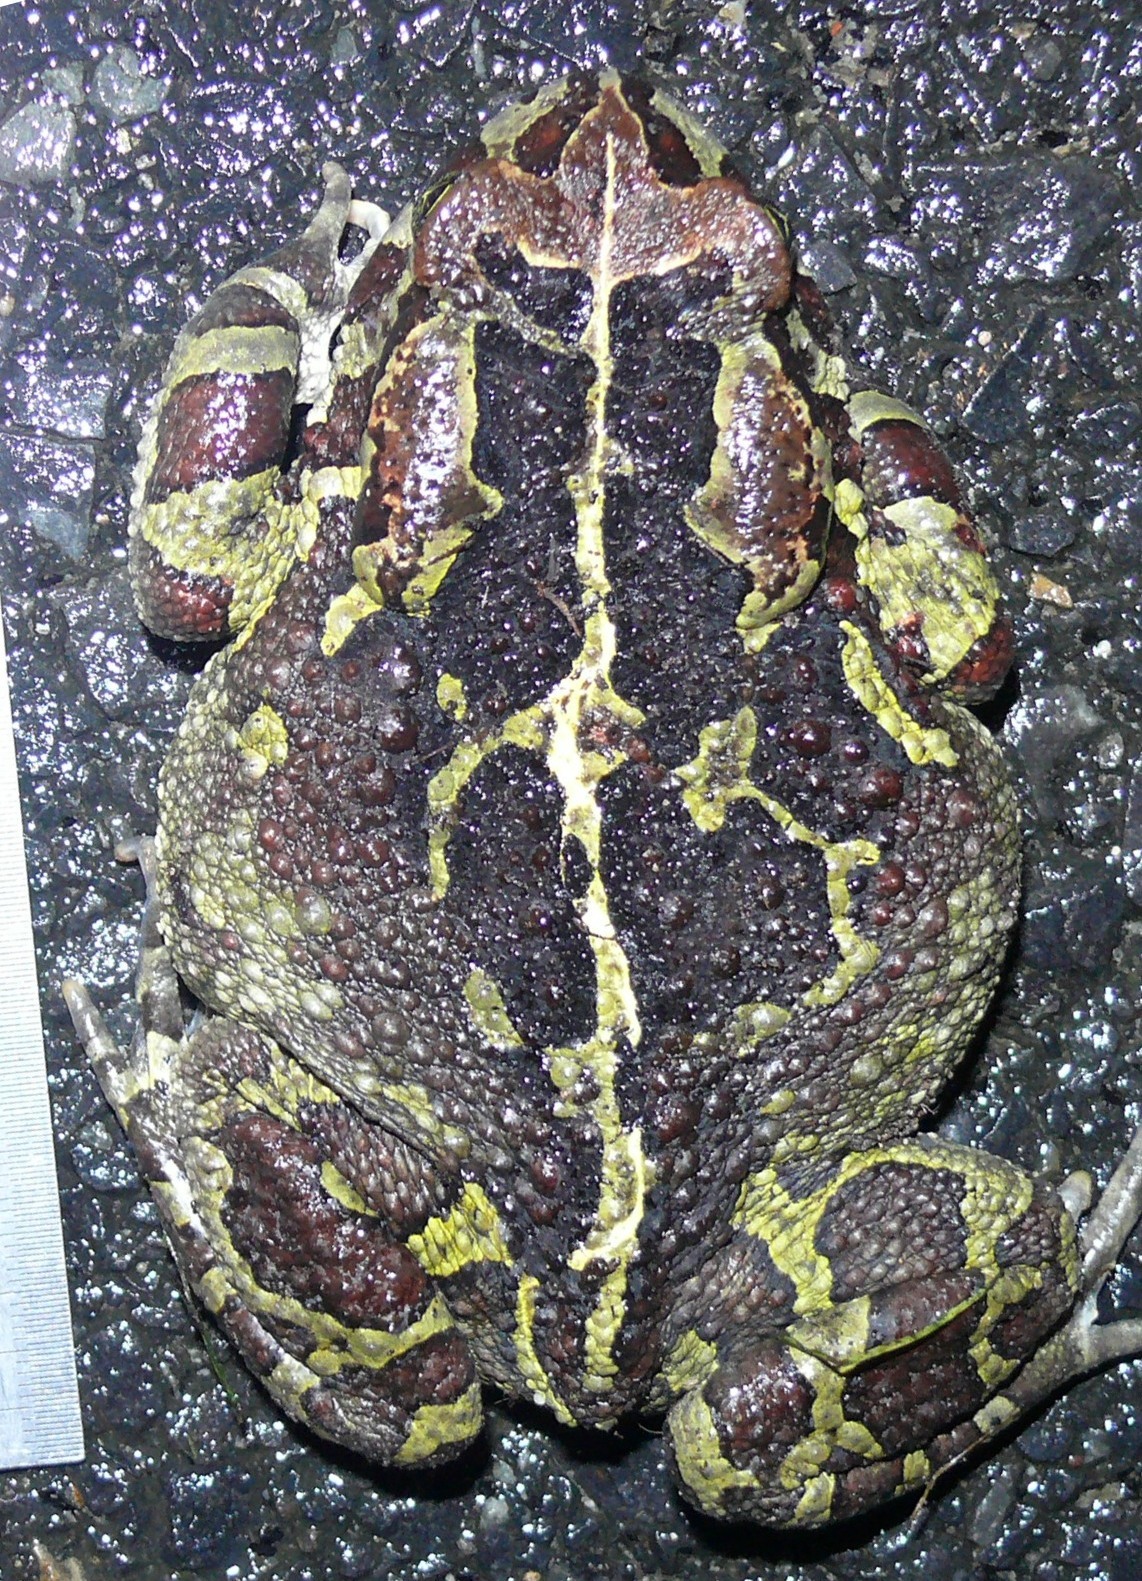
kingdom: Animalia
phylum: Chordata
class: Amphibia
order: Anura
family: Bufonidae
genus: Sclerophrys
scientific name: Sclerophrys pantherina
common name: Panther toad
